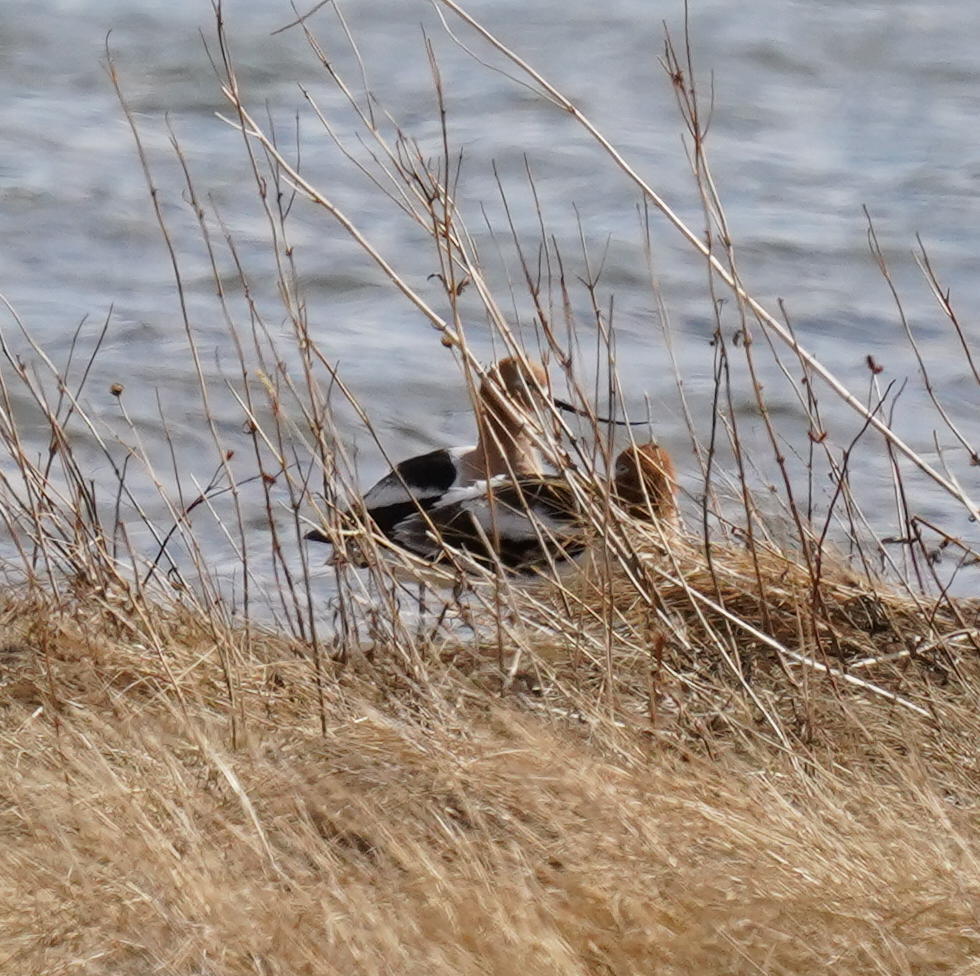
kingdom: Animalia
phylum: Chordata
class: Aves
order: Charadriiformes
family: Recurvirostridae
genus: Recurvirostra
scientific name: Recurvirostra americana
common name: American avocet
